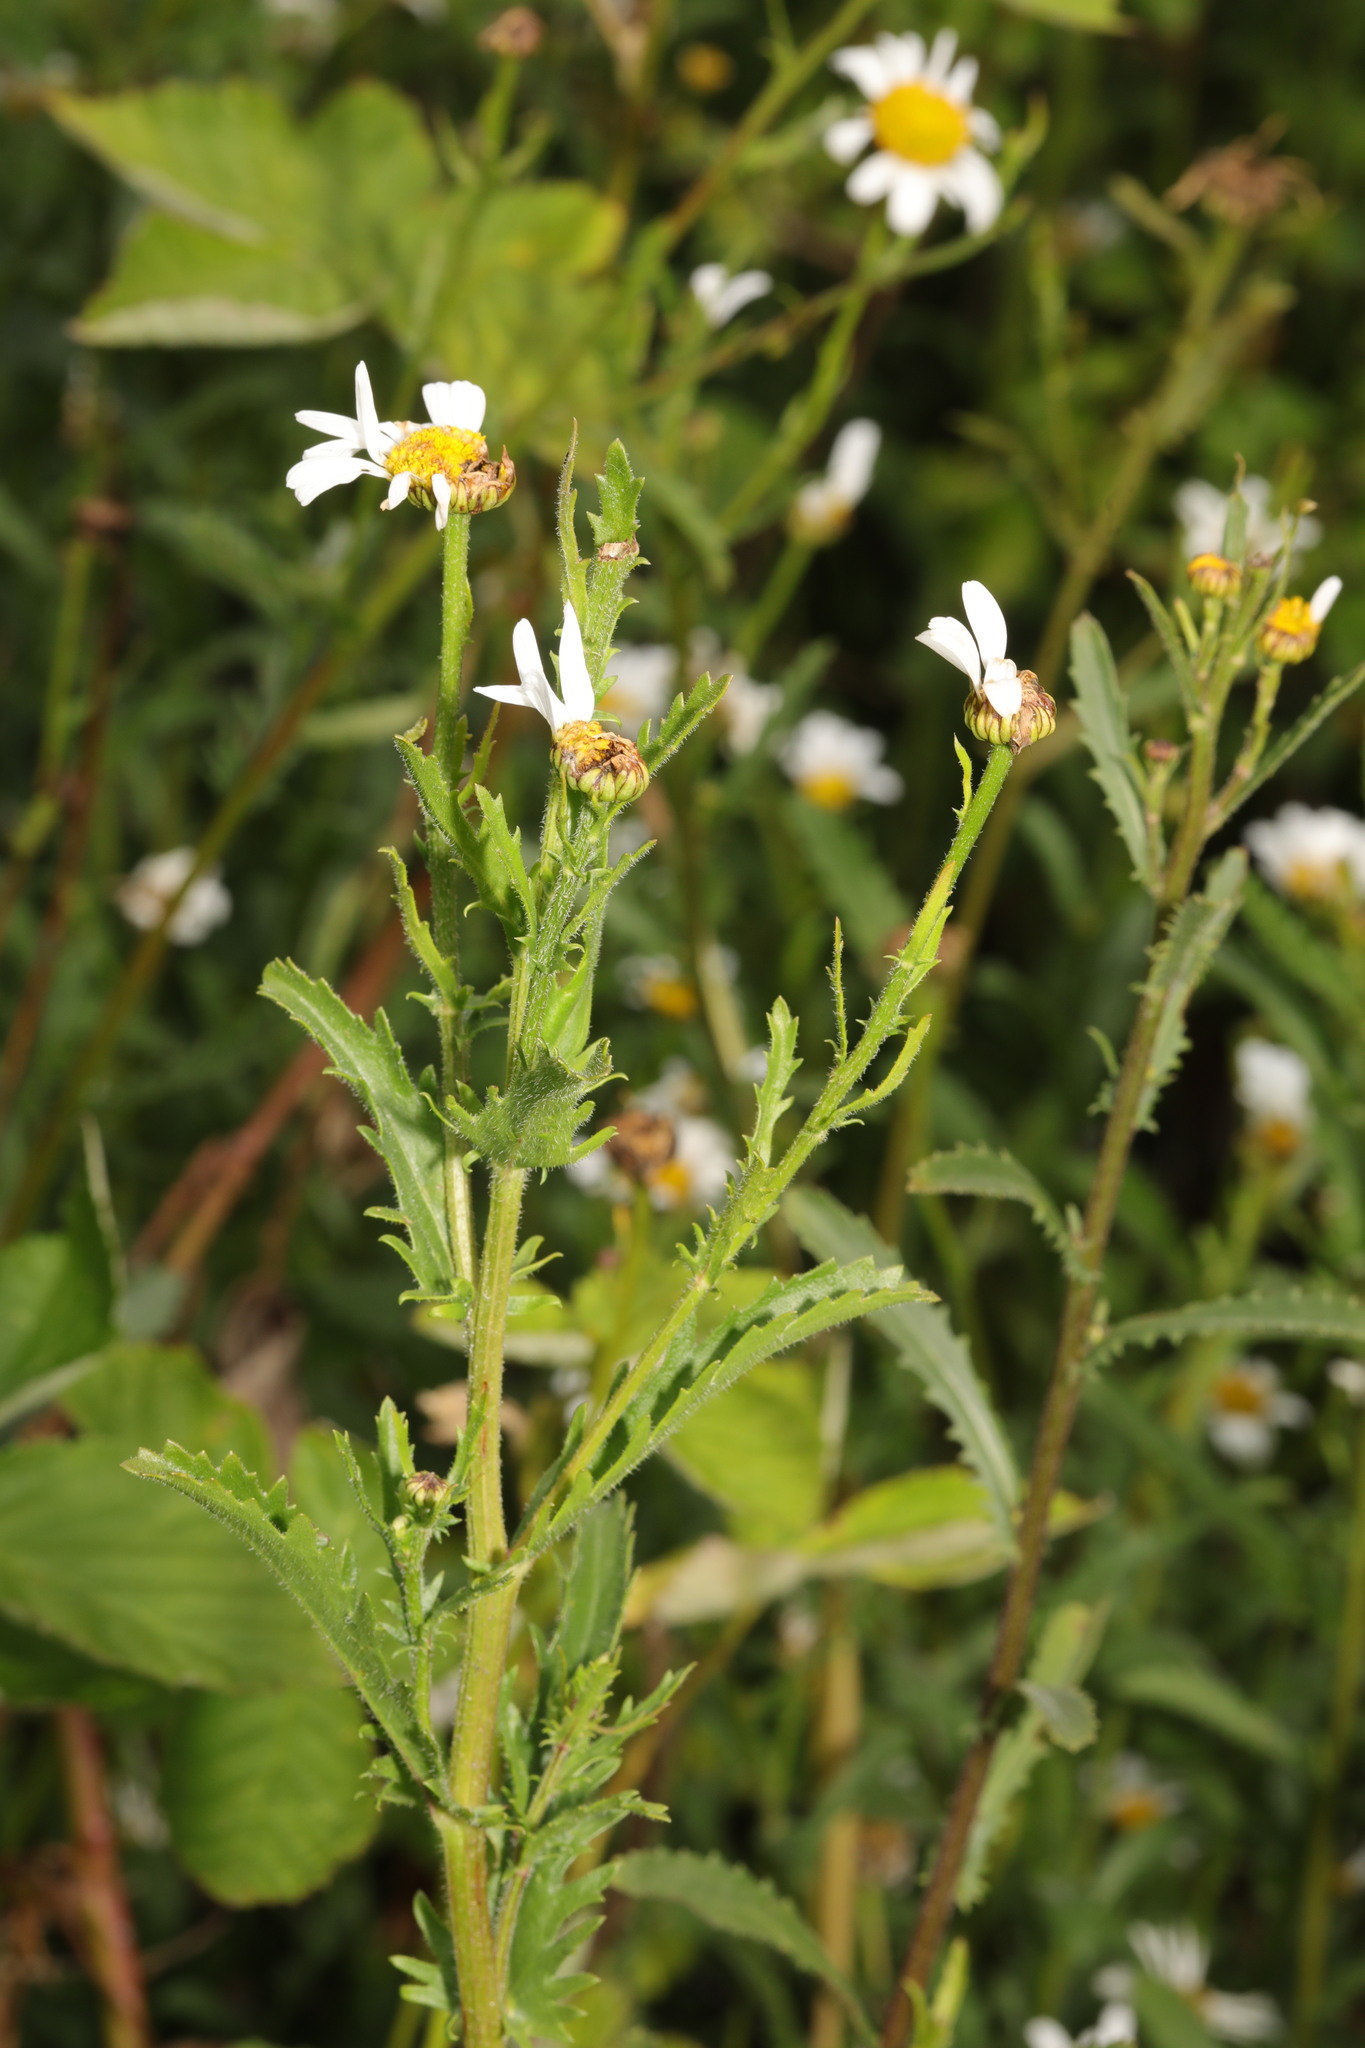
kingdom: Plantae
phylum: Tracheophyta
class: Magnoliopsida
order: Asterales
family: Asteraceae
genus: Leucanthemum
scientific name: Leucanthemum vulgare
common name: Oxeye daisy
